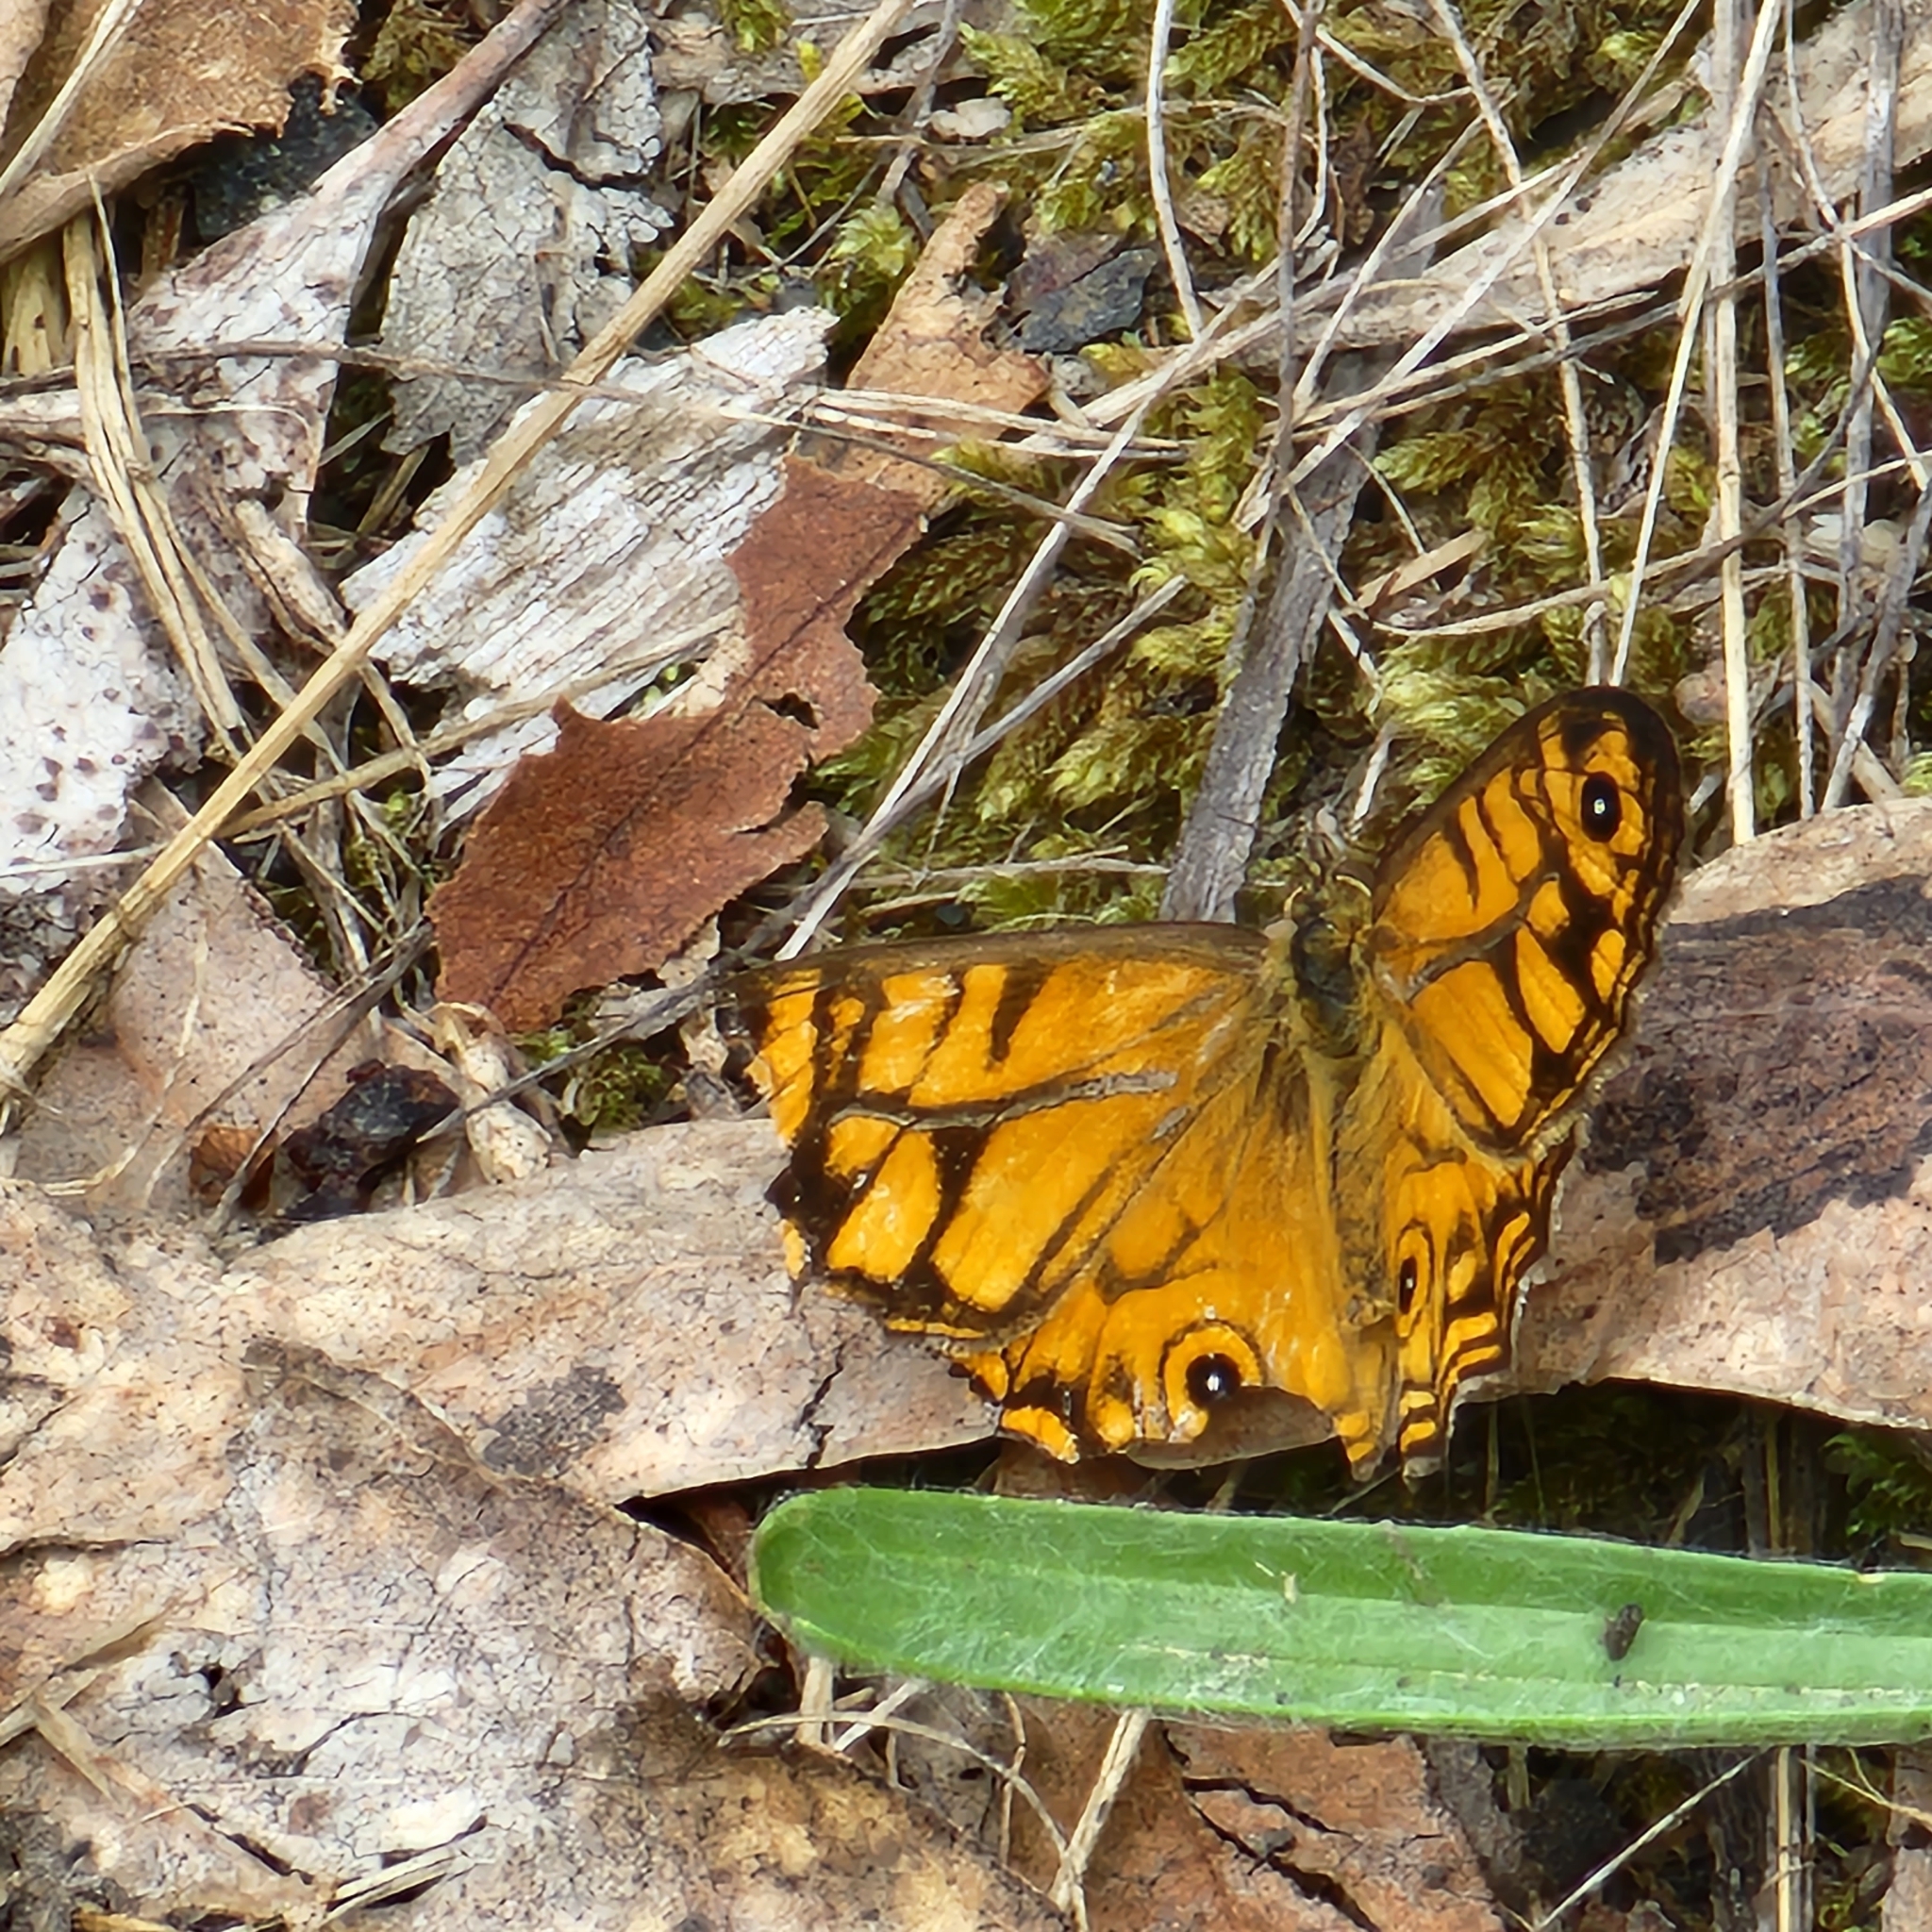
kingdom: Animalia
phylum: Arthropoda
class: Insecta
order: Lepidoptera
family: Nymphalidae
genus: Geitoneura
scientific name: Geitoneura acantha
